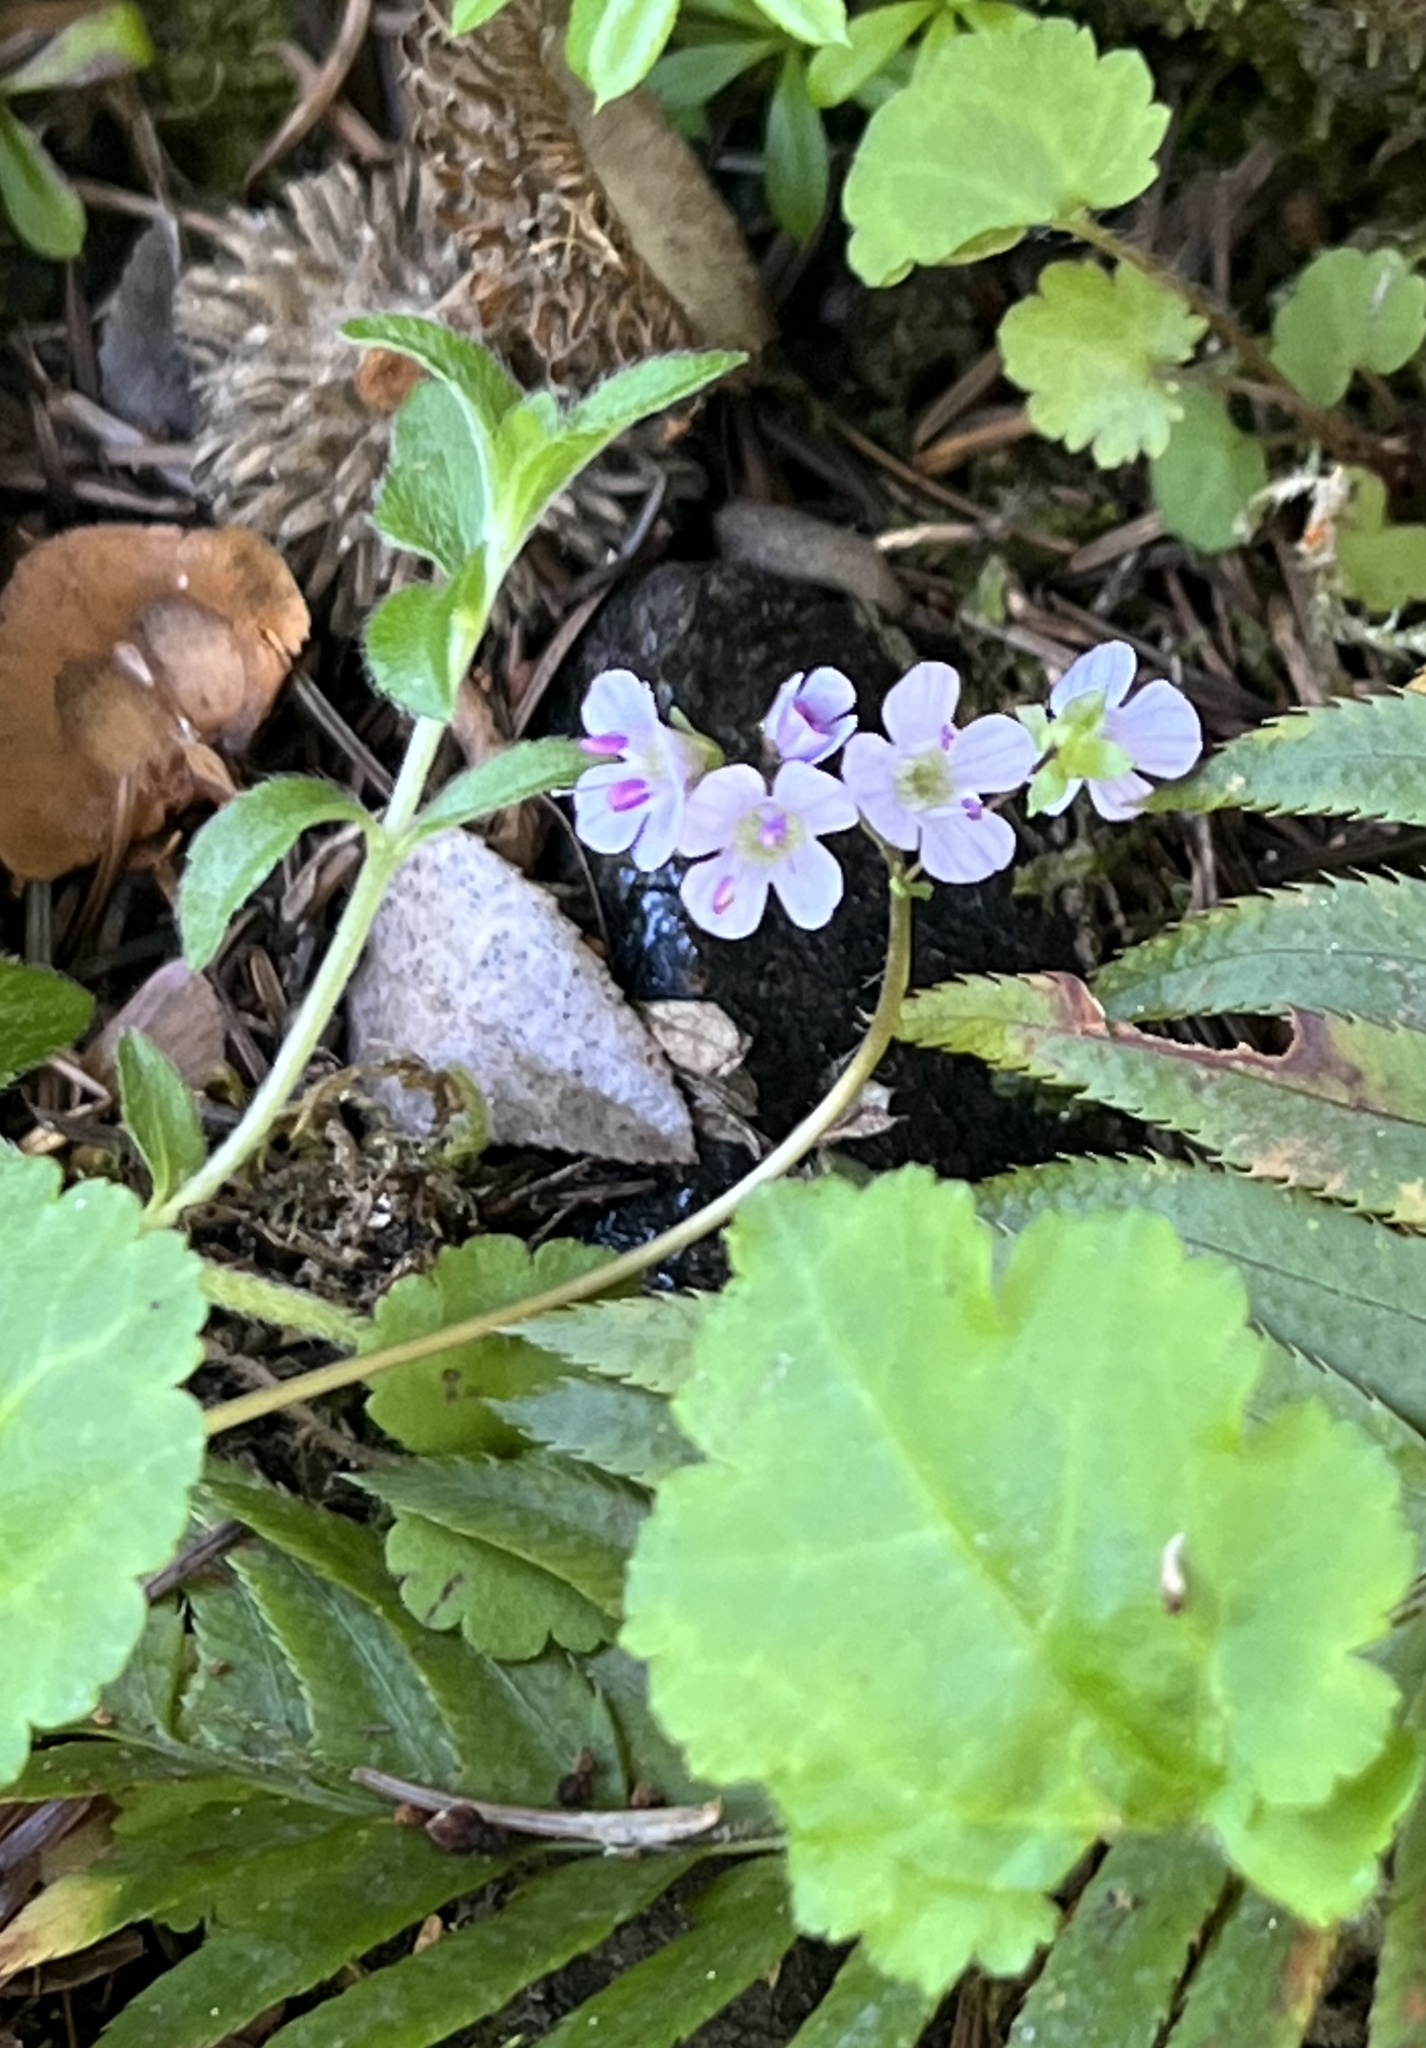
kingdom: Plantae
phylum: Tracheophyta
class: Magnoliopsida
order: Lamiales
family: Plantaginaceae
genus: Synthyris
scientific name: Synthyris reniformis
